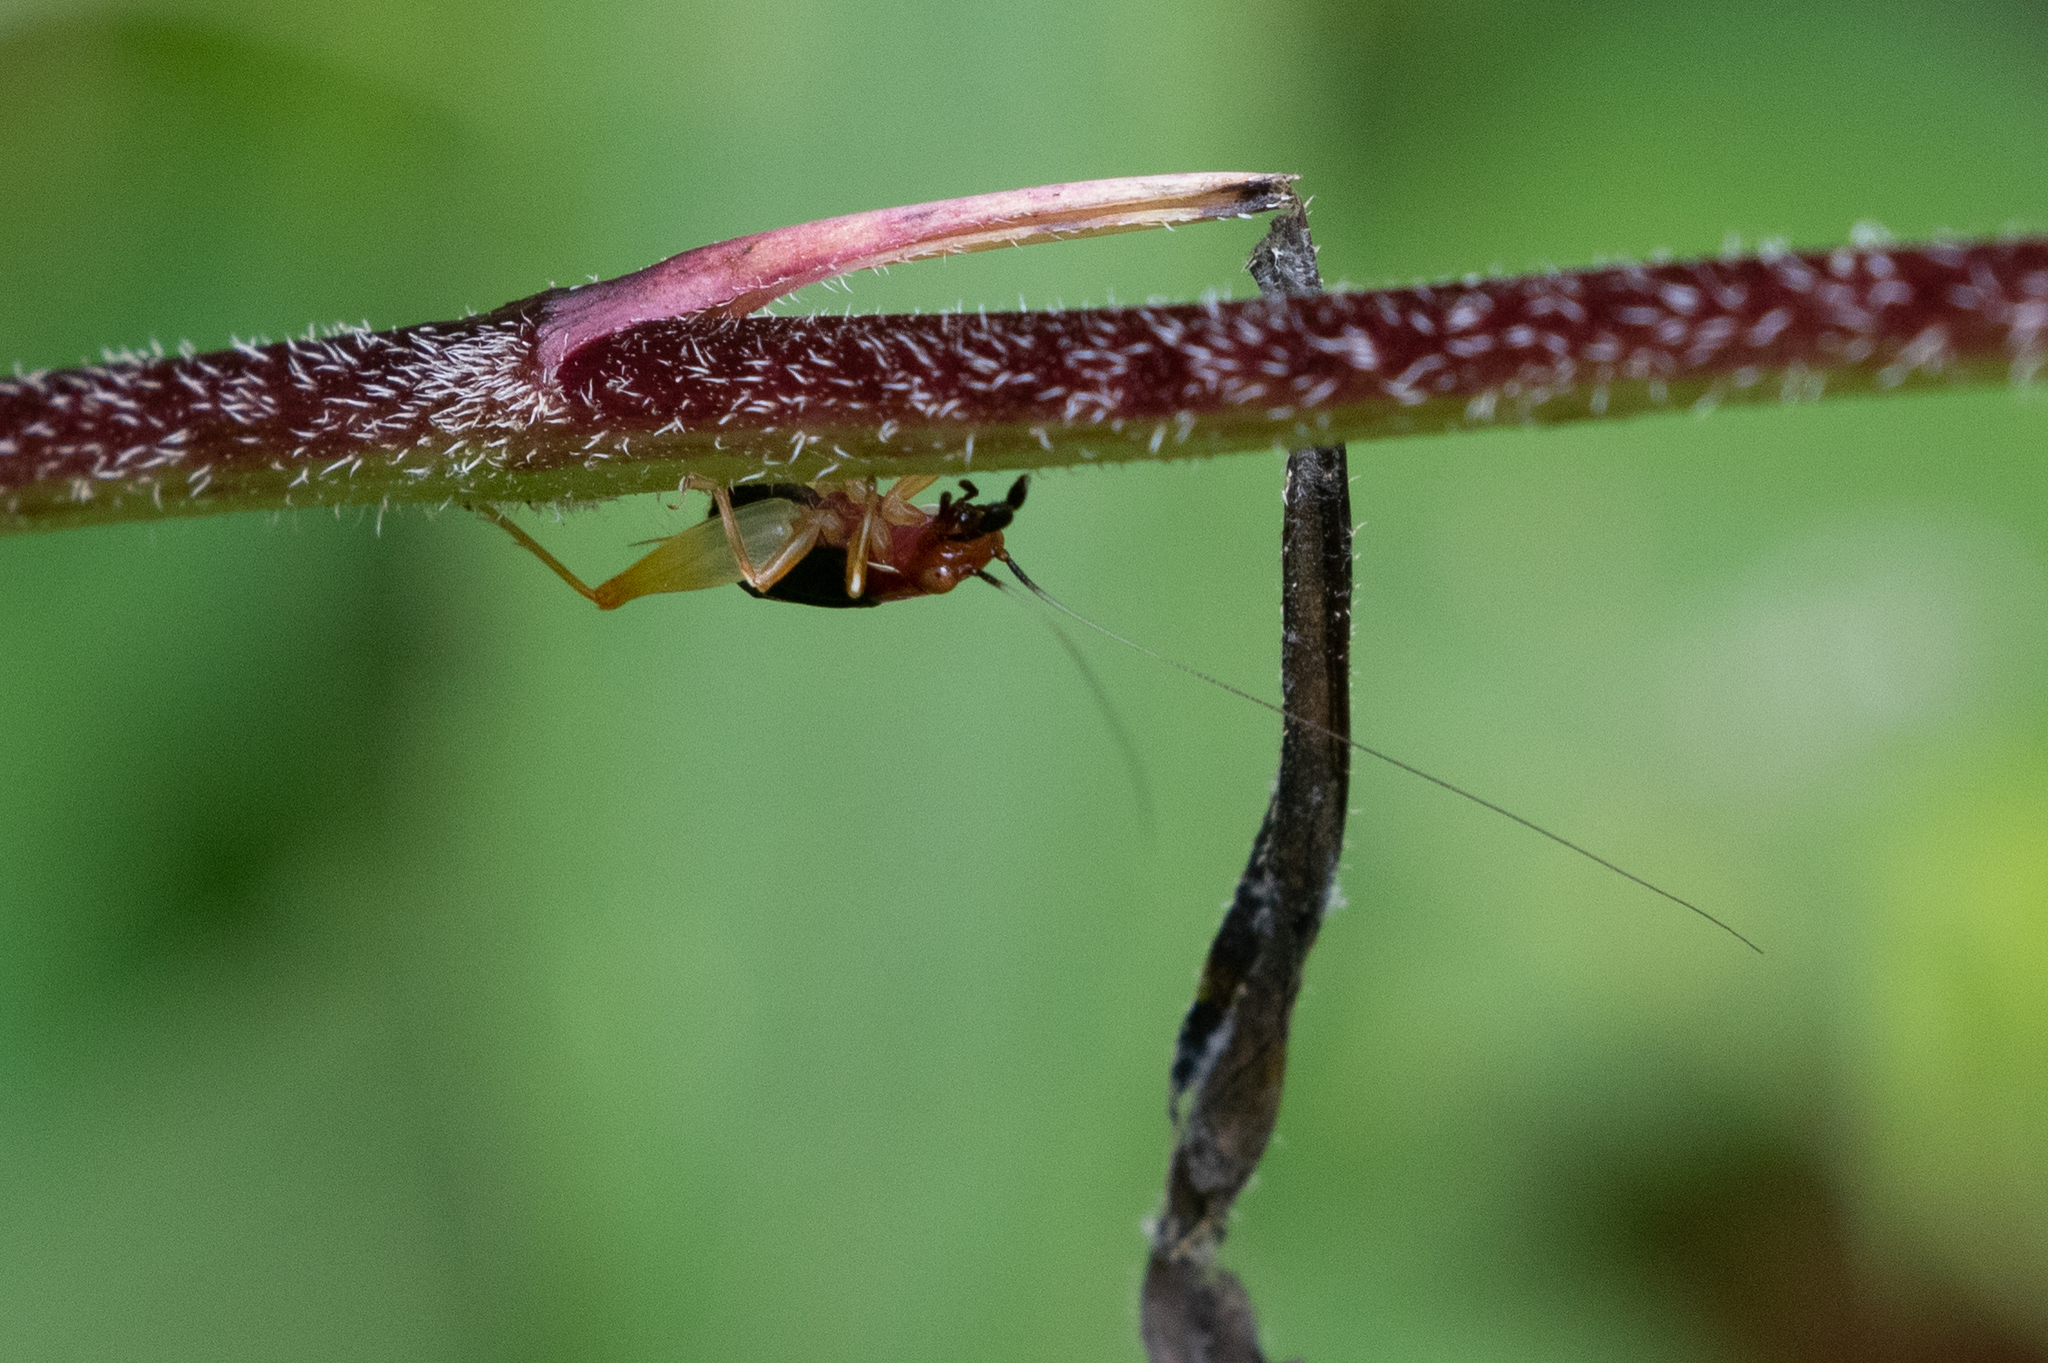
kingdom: Animalia
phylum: Arthropoda
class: Insecta
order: Orthoptera
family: Trigonidiidae
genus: Phyllopalpus
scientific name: Phyllopalpus pulchellus
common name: Handsome trig
